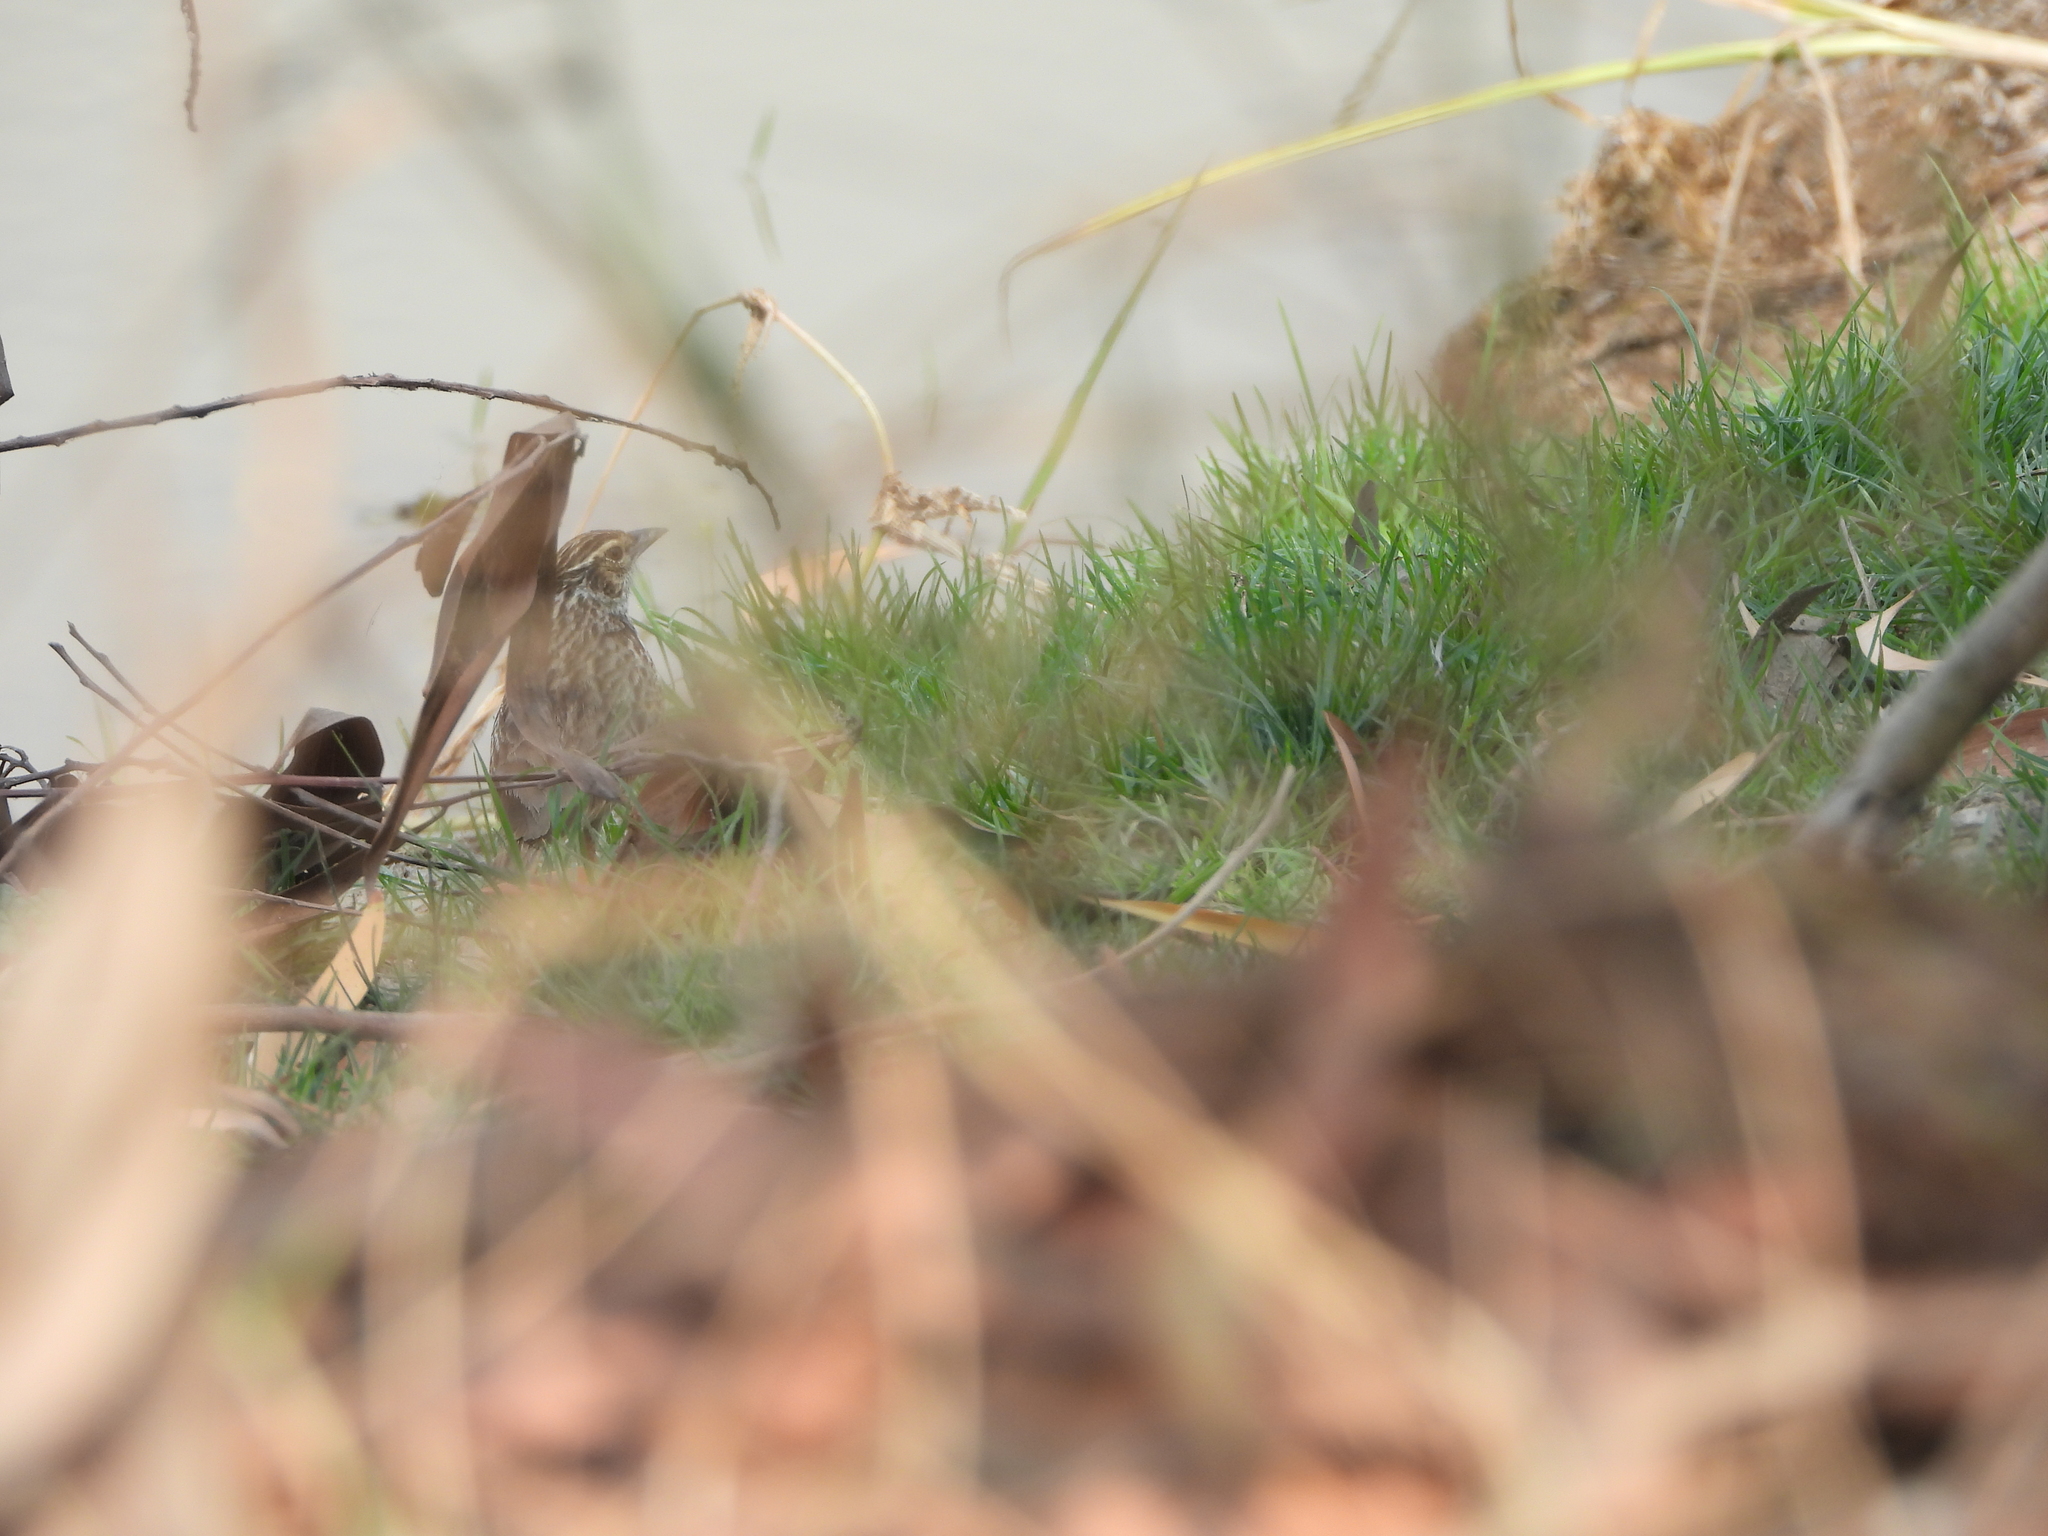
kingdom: Animalia
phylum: Chordata
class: Aves
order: Passeriformes
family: Alaudidae
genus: Mirafra
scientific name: Mirafra erythrocephala
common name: Indochinese bushlark
